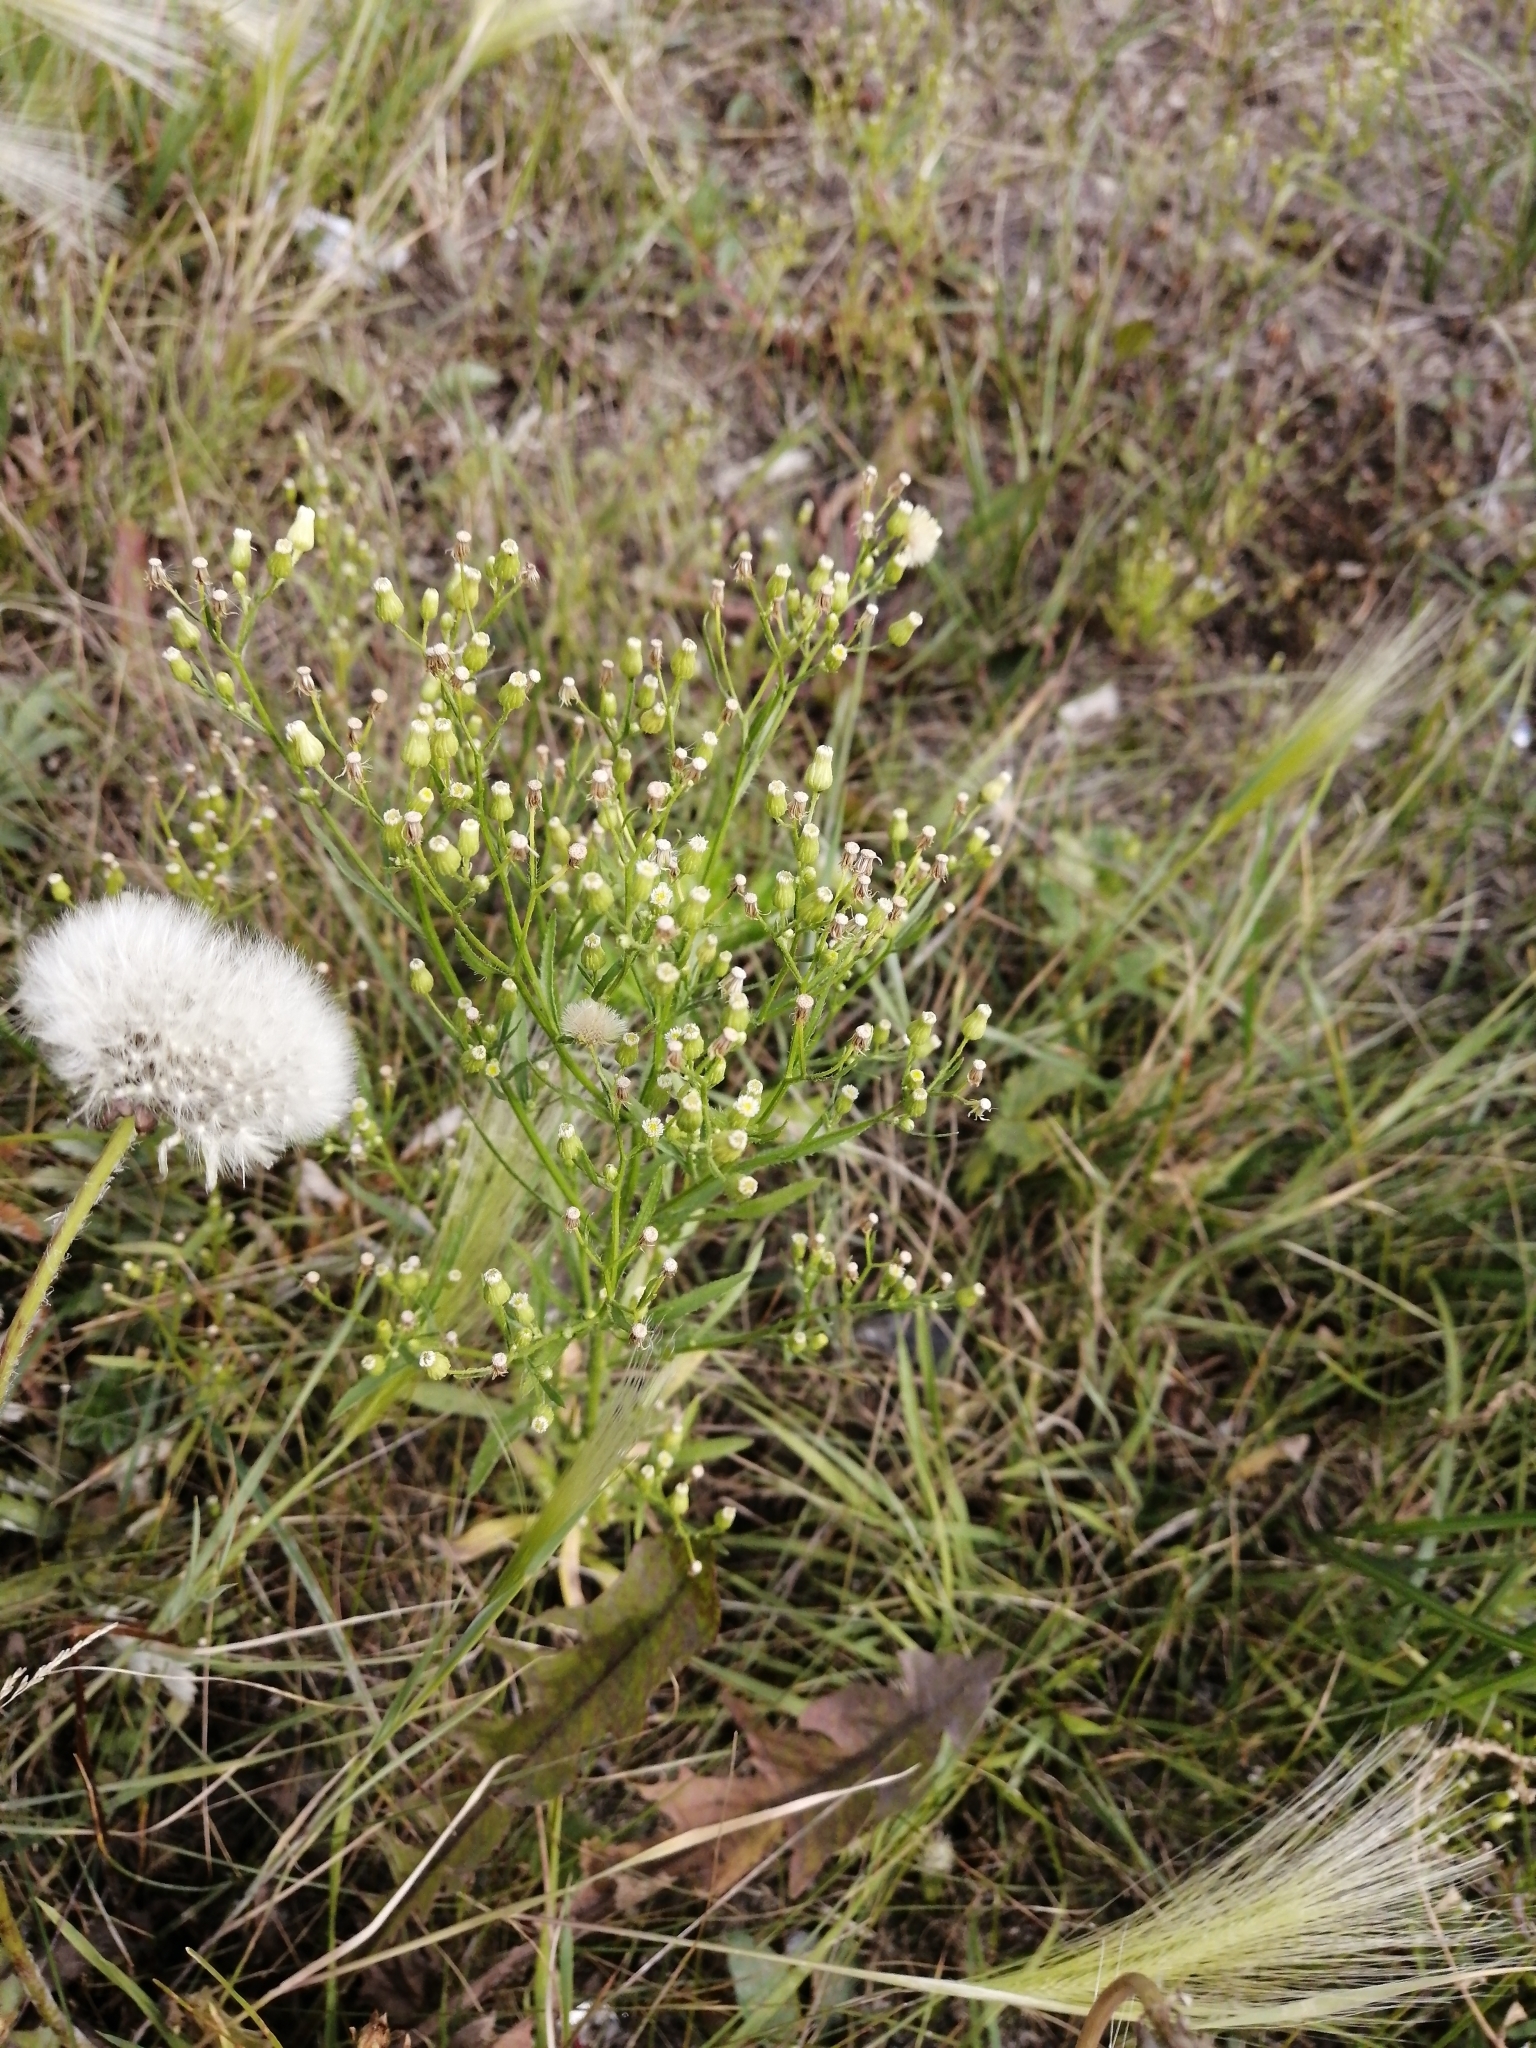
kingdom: Plantae
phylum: Tracheophyta
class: Magnoliopsida
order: Asterales
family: Asteraceae
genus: Erigeron
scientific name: Erigeron canadensis
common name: Canadian fleabane
